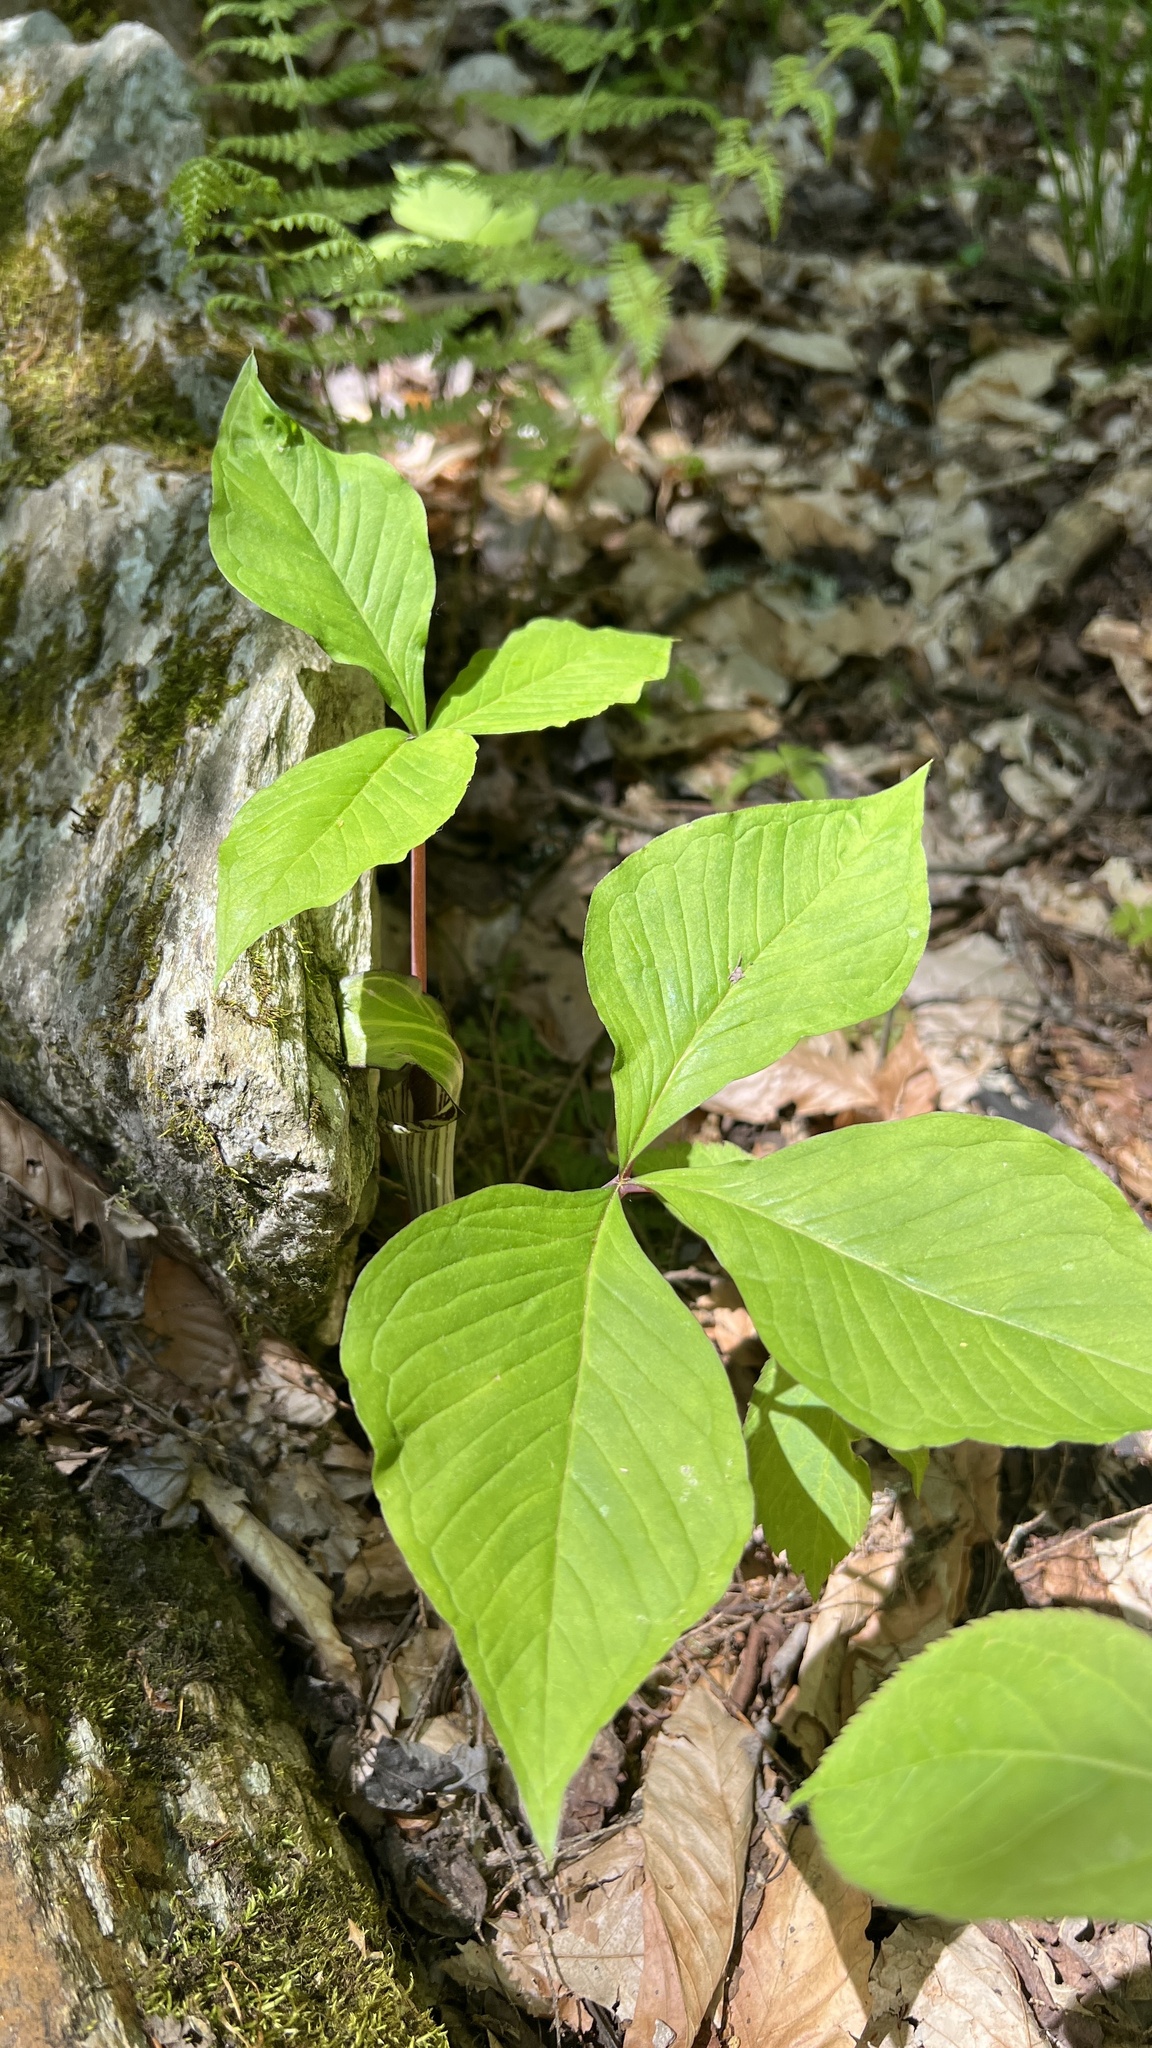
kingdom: Plantae
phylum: Tracheophyta
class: Liliopsida
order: Alismatales
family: Araceae
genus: Arisaema
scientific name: Arisaema triphyllum
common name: Jack-in-the-pulpit
